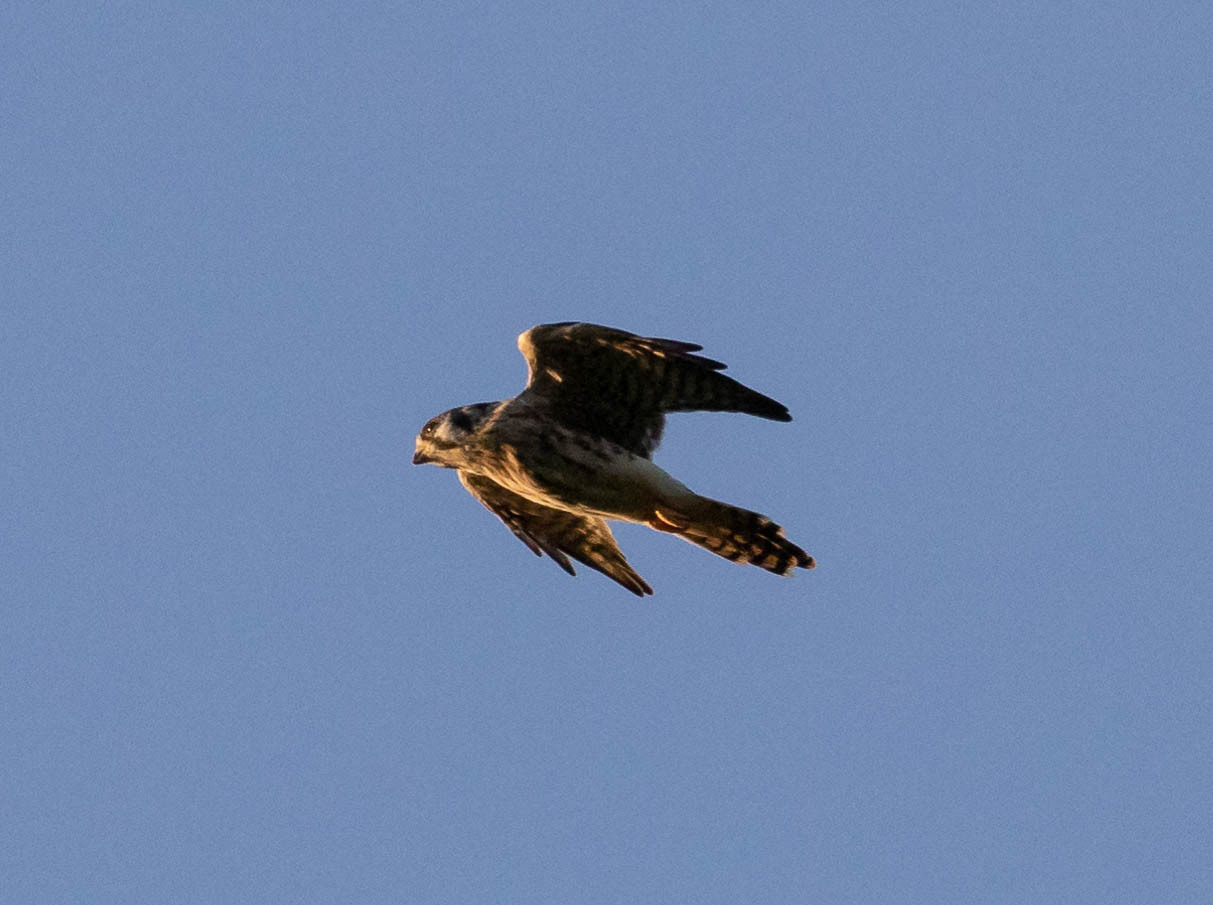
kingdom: Animalia
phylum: Chordata
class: Aves
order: Falconiformes
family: Falconidae
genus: Falco
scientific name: Falco sparverius
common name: American kestrel
